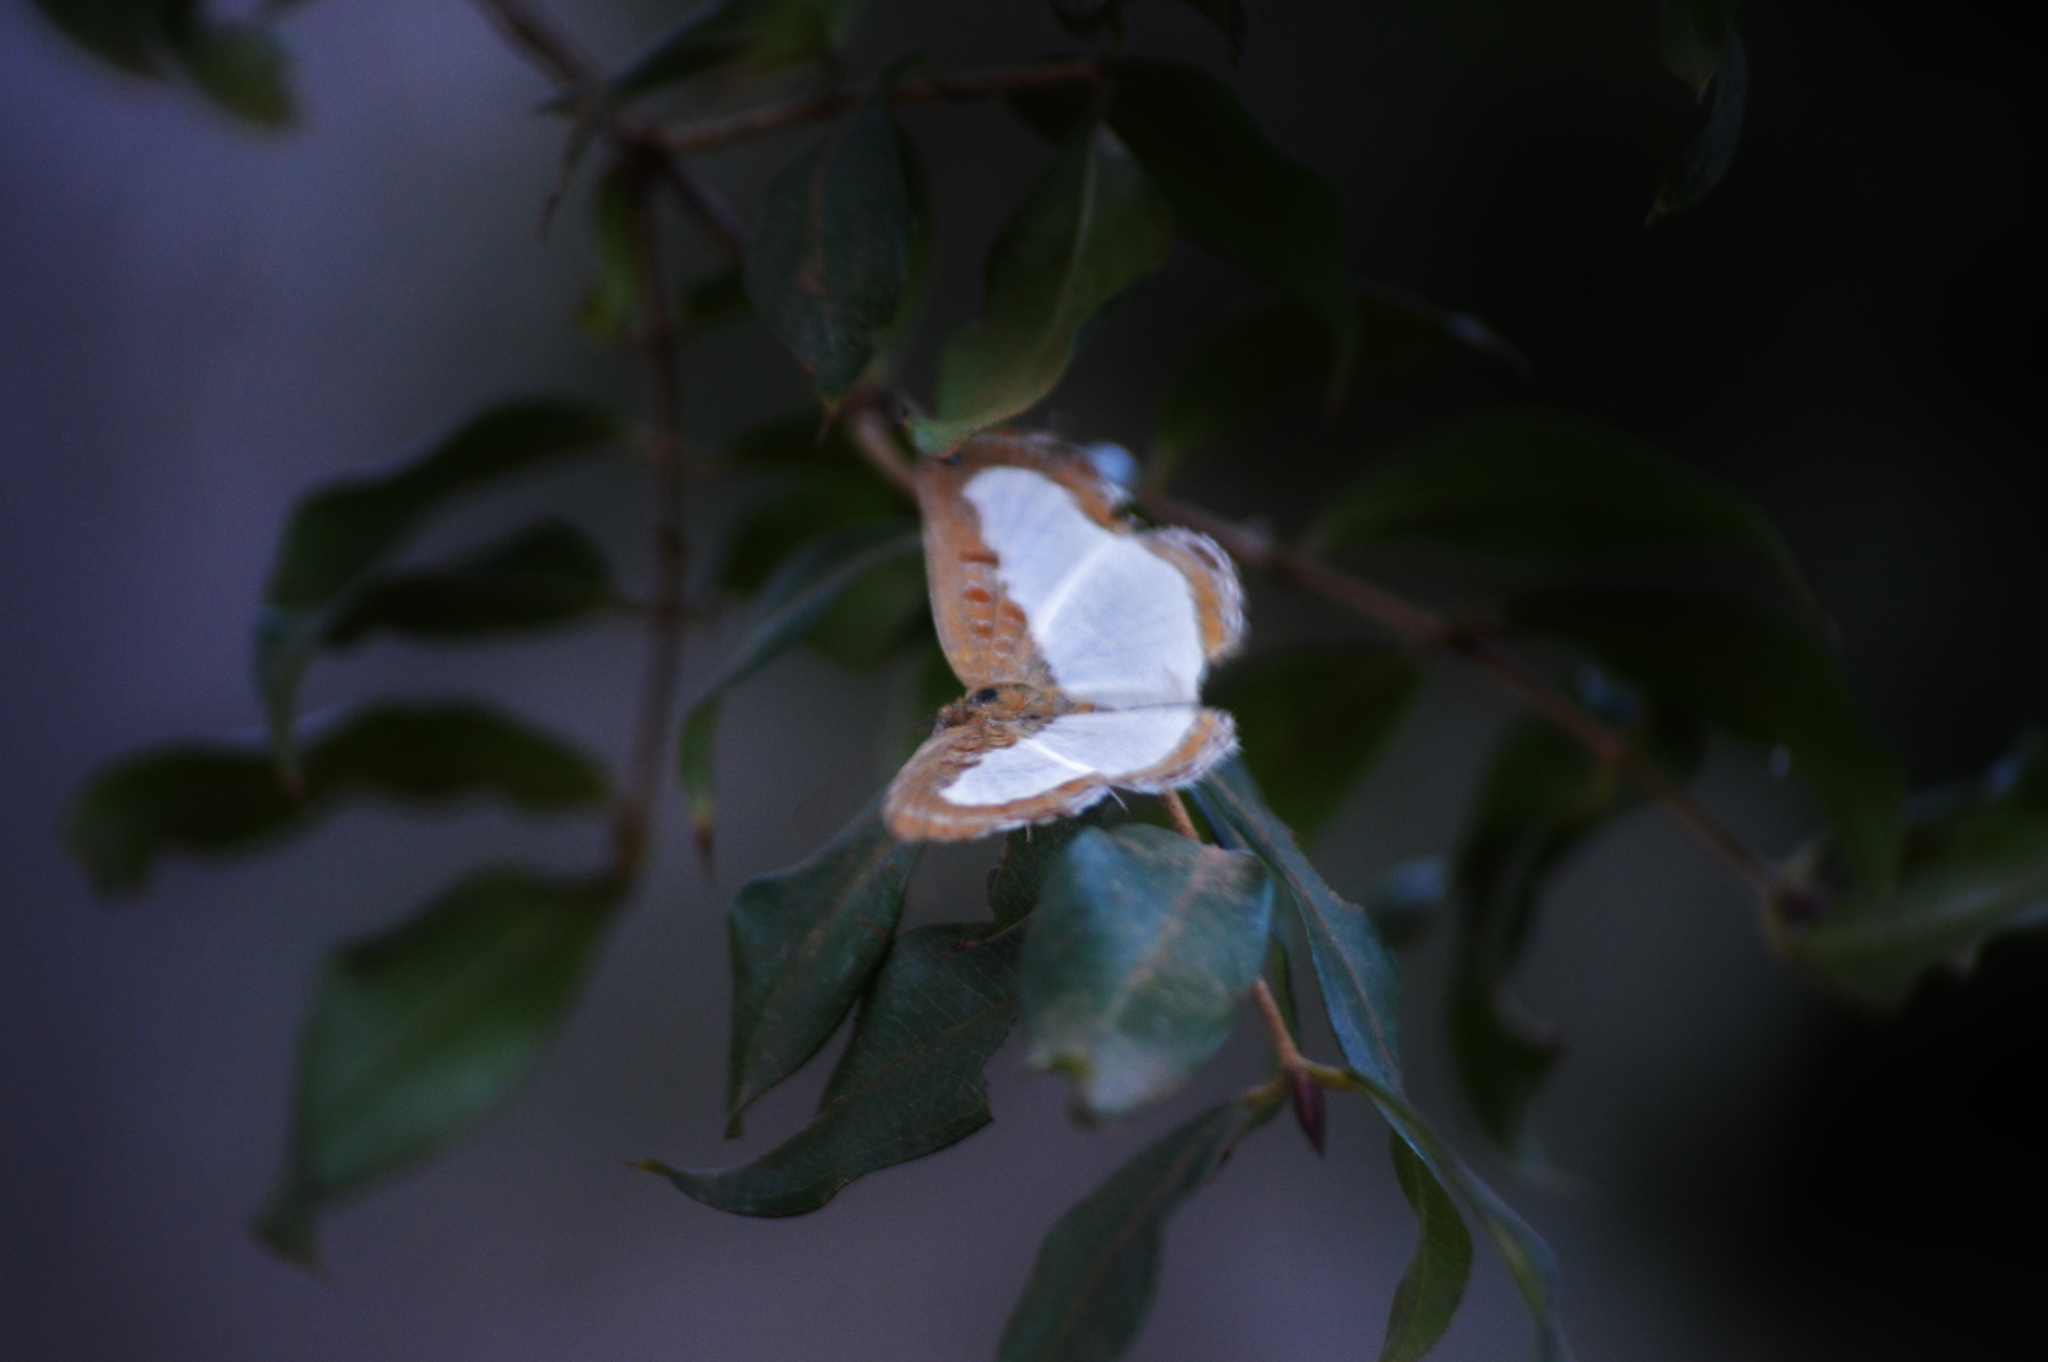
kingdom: Animalia
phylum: Arthropoda
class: Insecta
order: Lepidoptera
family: Riodinidae
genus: Nymula
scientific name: Nymula calyce
